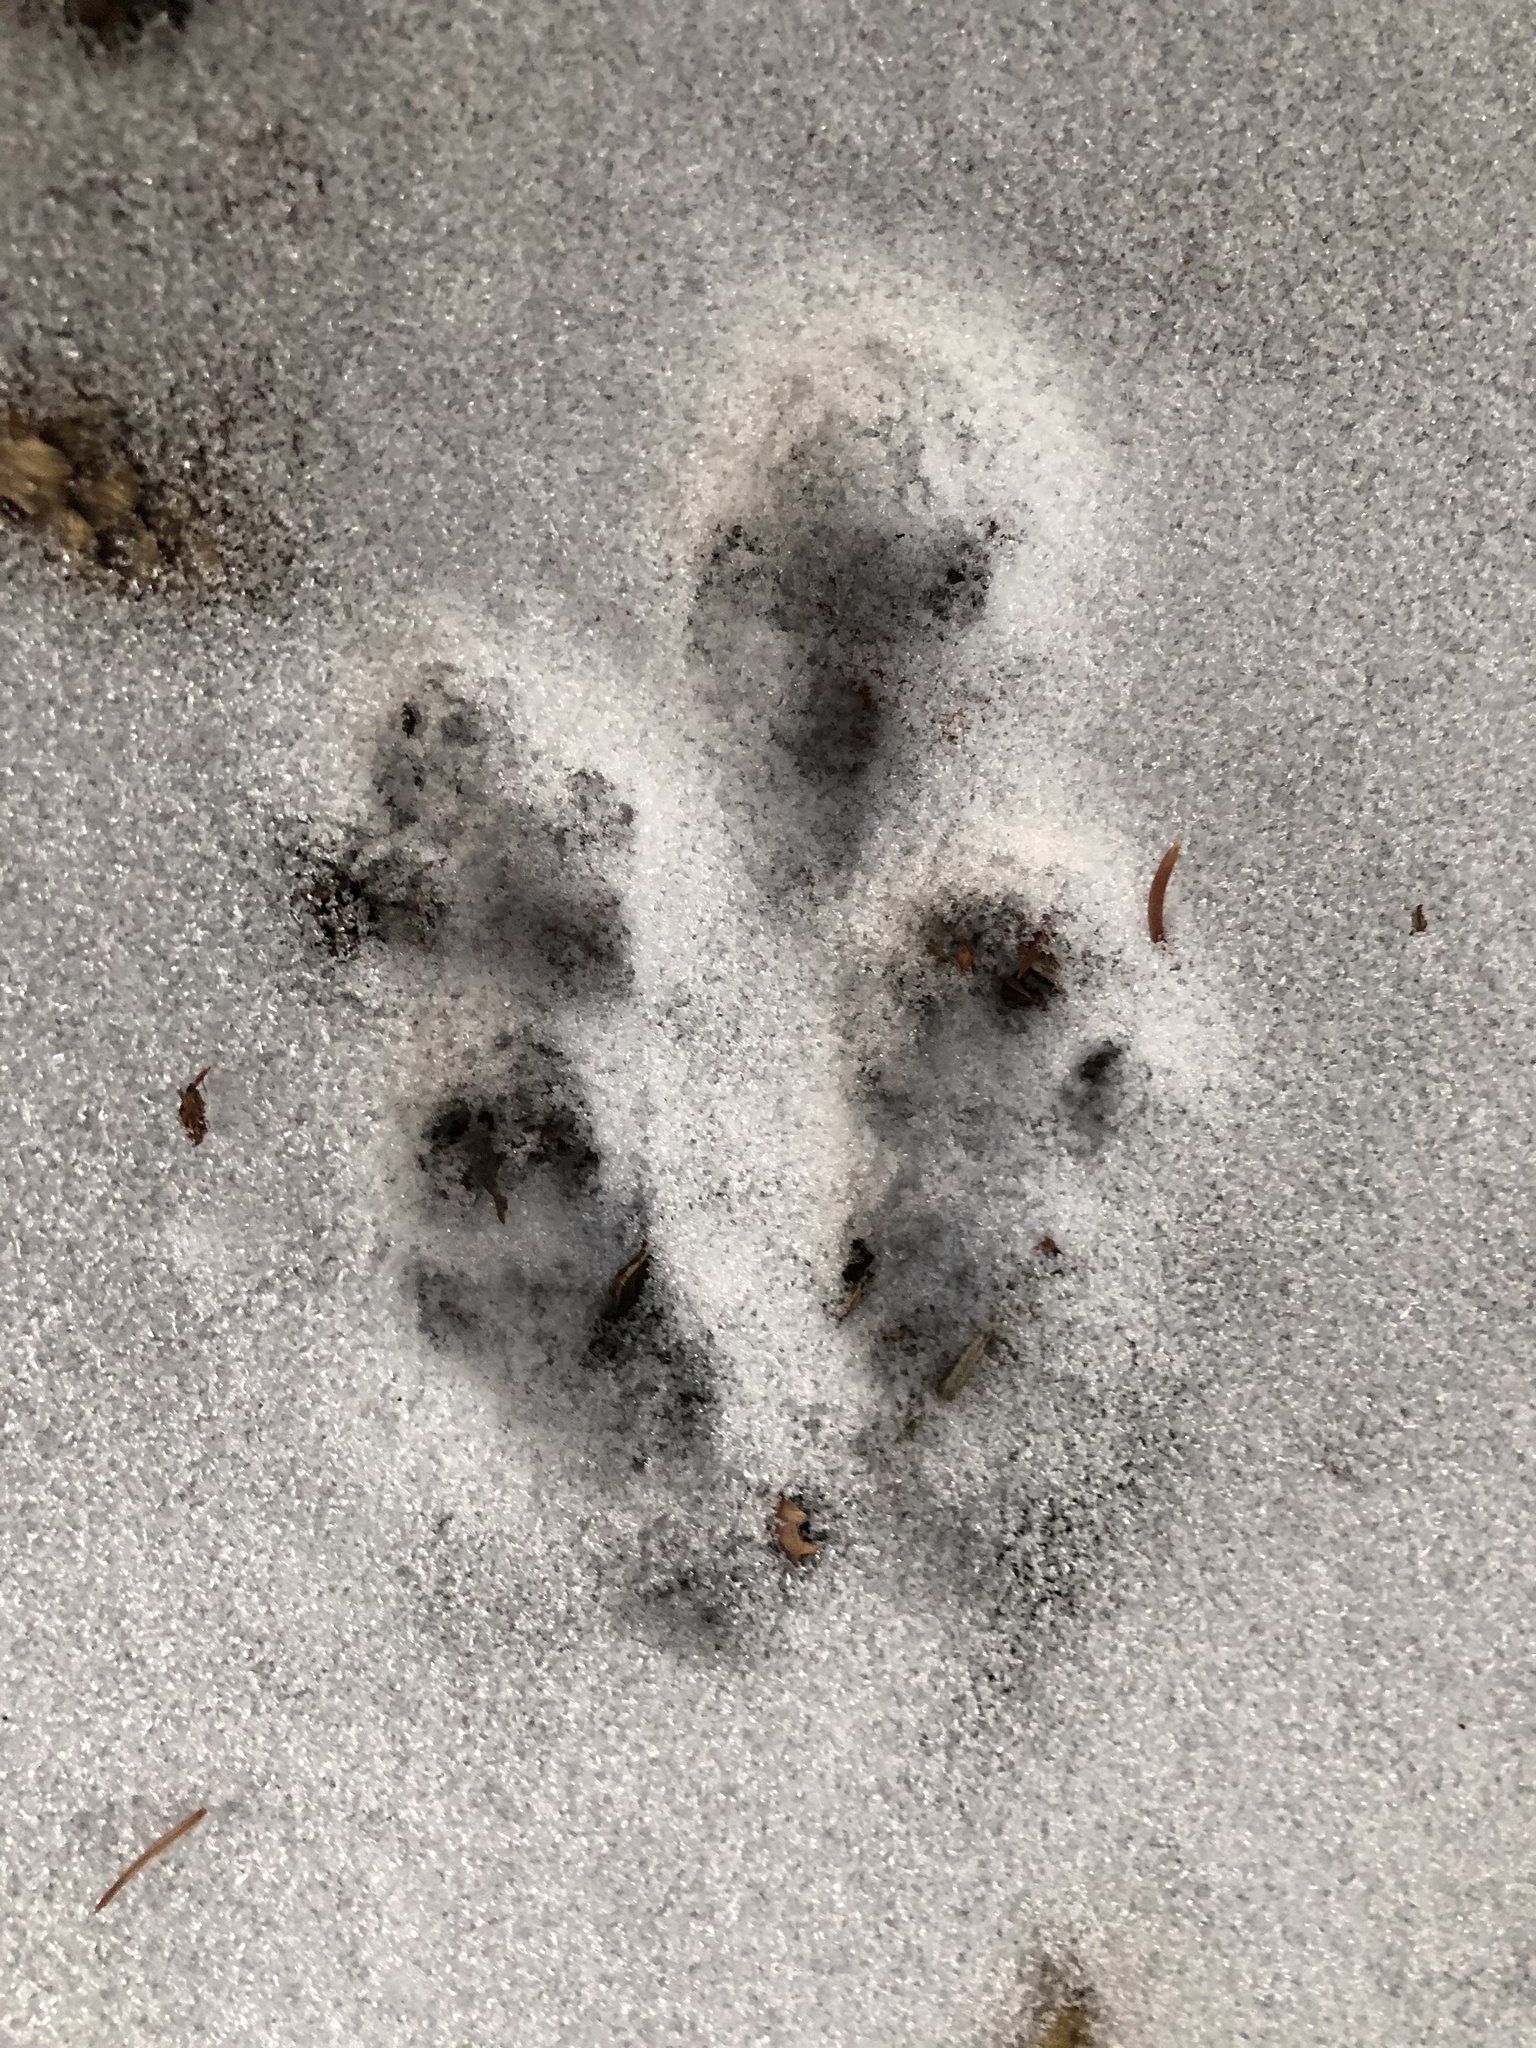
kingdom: Animalia
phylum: Chordata
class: Mammalia
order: Rodentia
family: Sciuridae
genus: Sciurus
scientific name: Sciurus carolinensis
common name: Eastern gray squirrel
